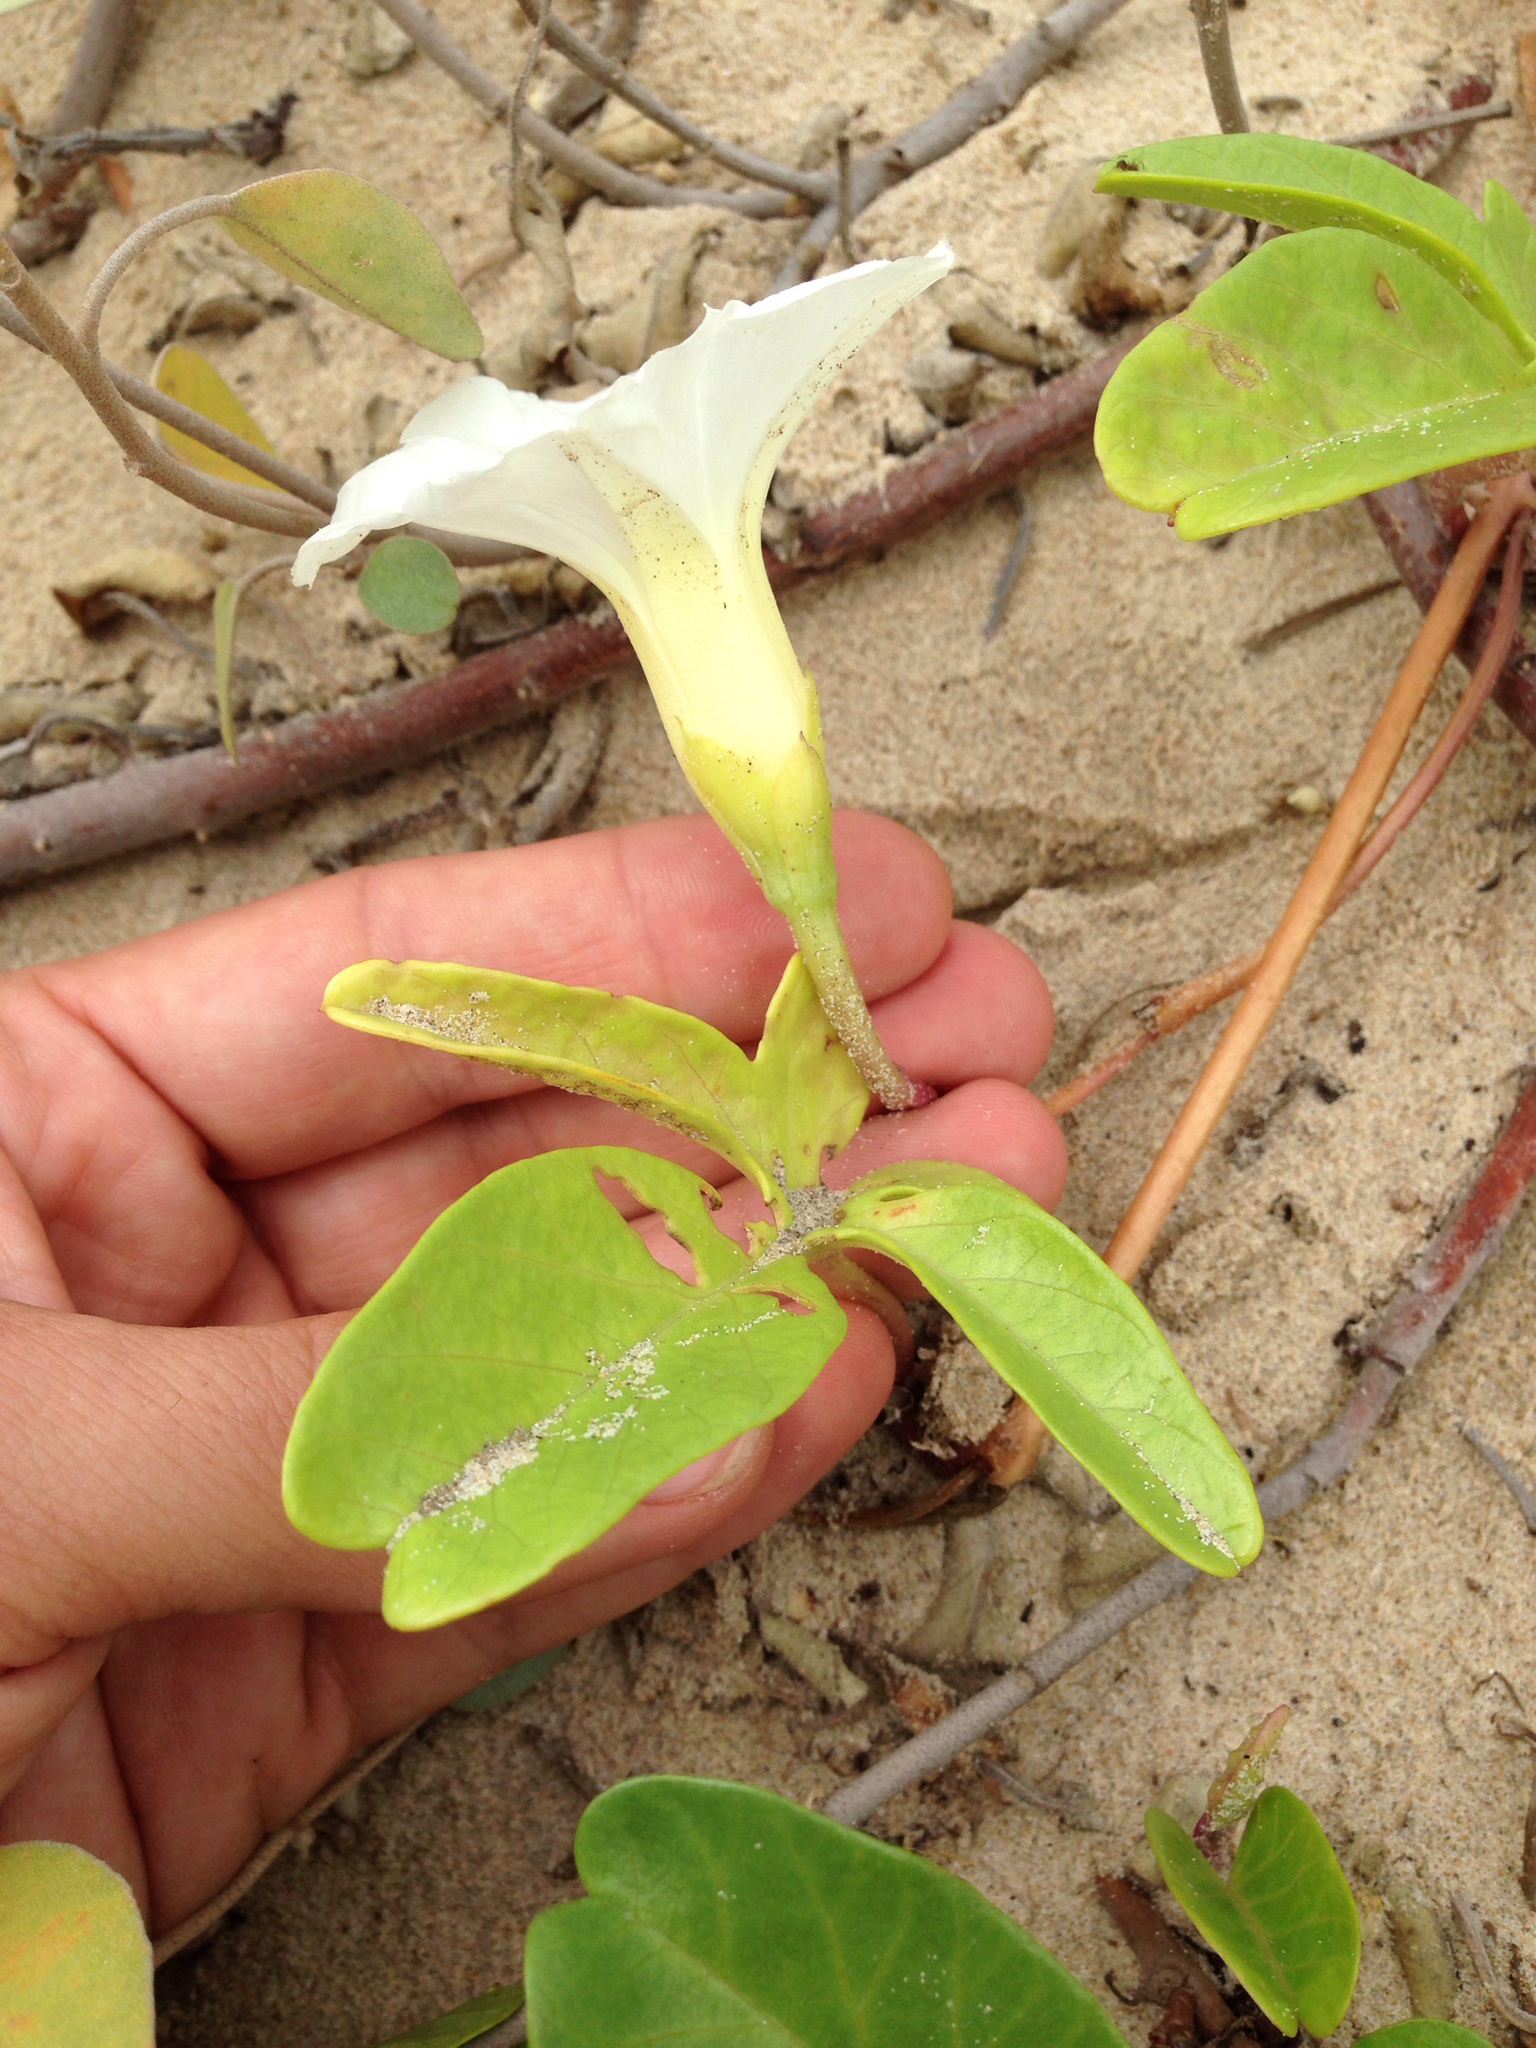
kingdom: Plantae
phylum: Tracheophyta
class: Magnoliopsida
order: Solanales
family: Convolvulaceae
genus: Ipomoea
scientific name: Ipomoea imperati
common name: Fiddle-leaf morning-glory
